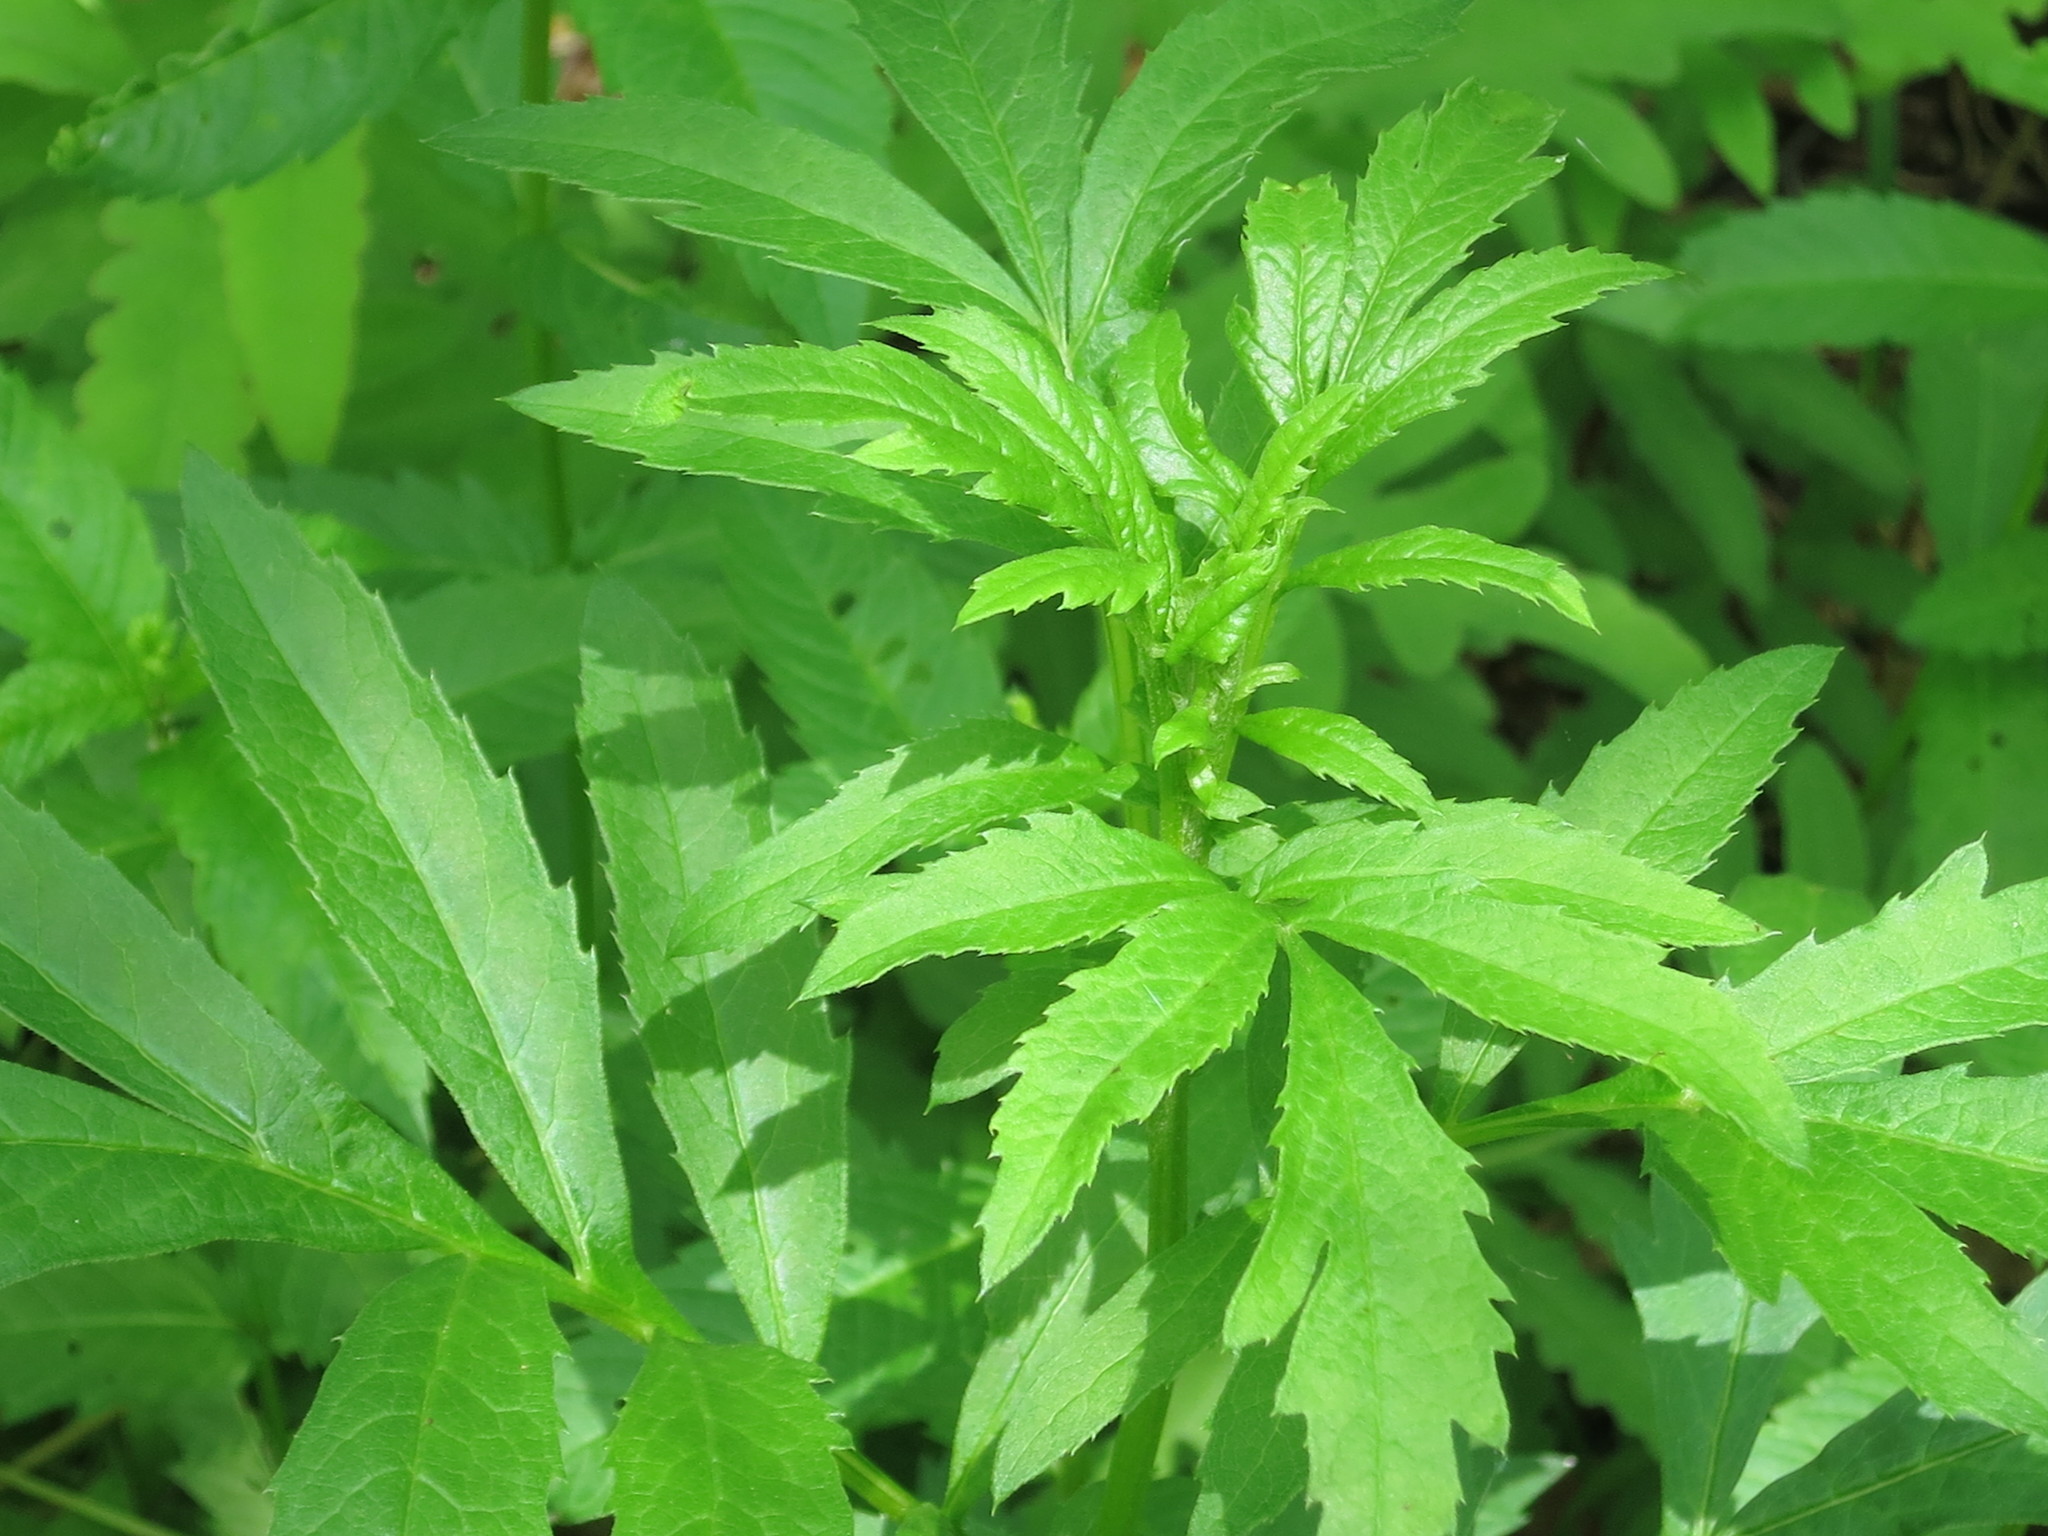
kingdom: Plantae
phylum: Tracheophyta
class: Magnoliopsida
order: Asterales
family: Asteraceae
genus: Serratula
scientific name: Serratula coronata
